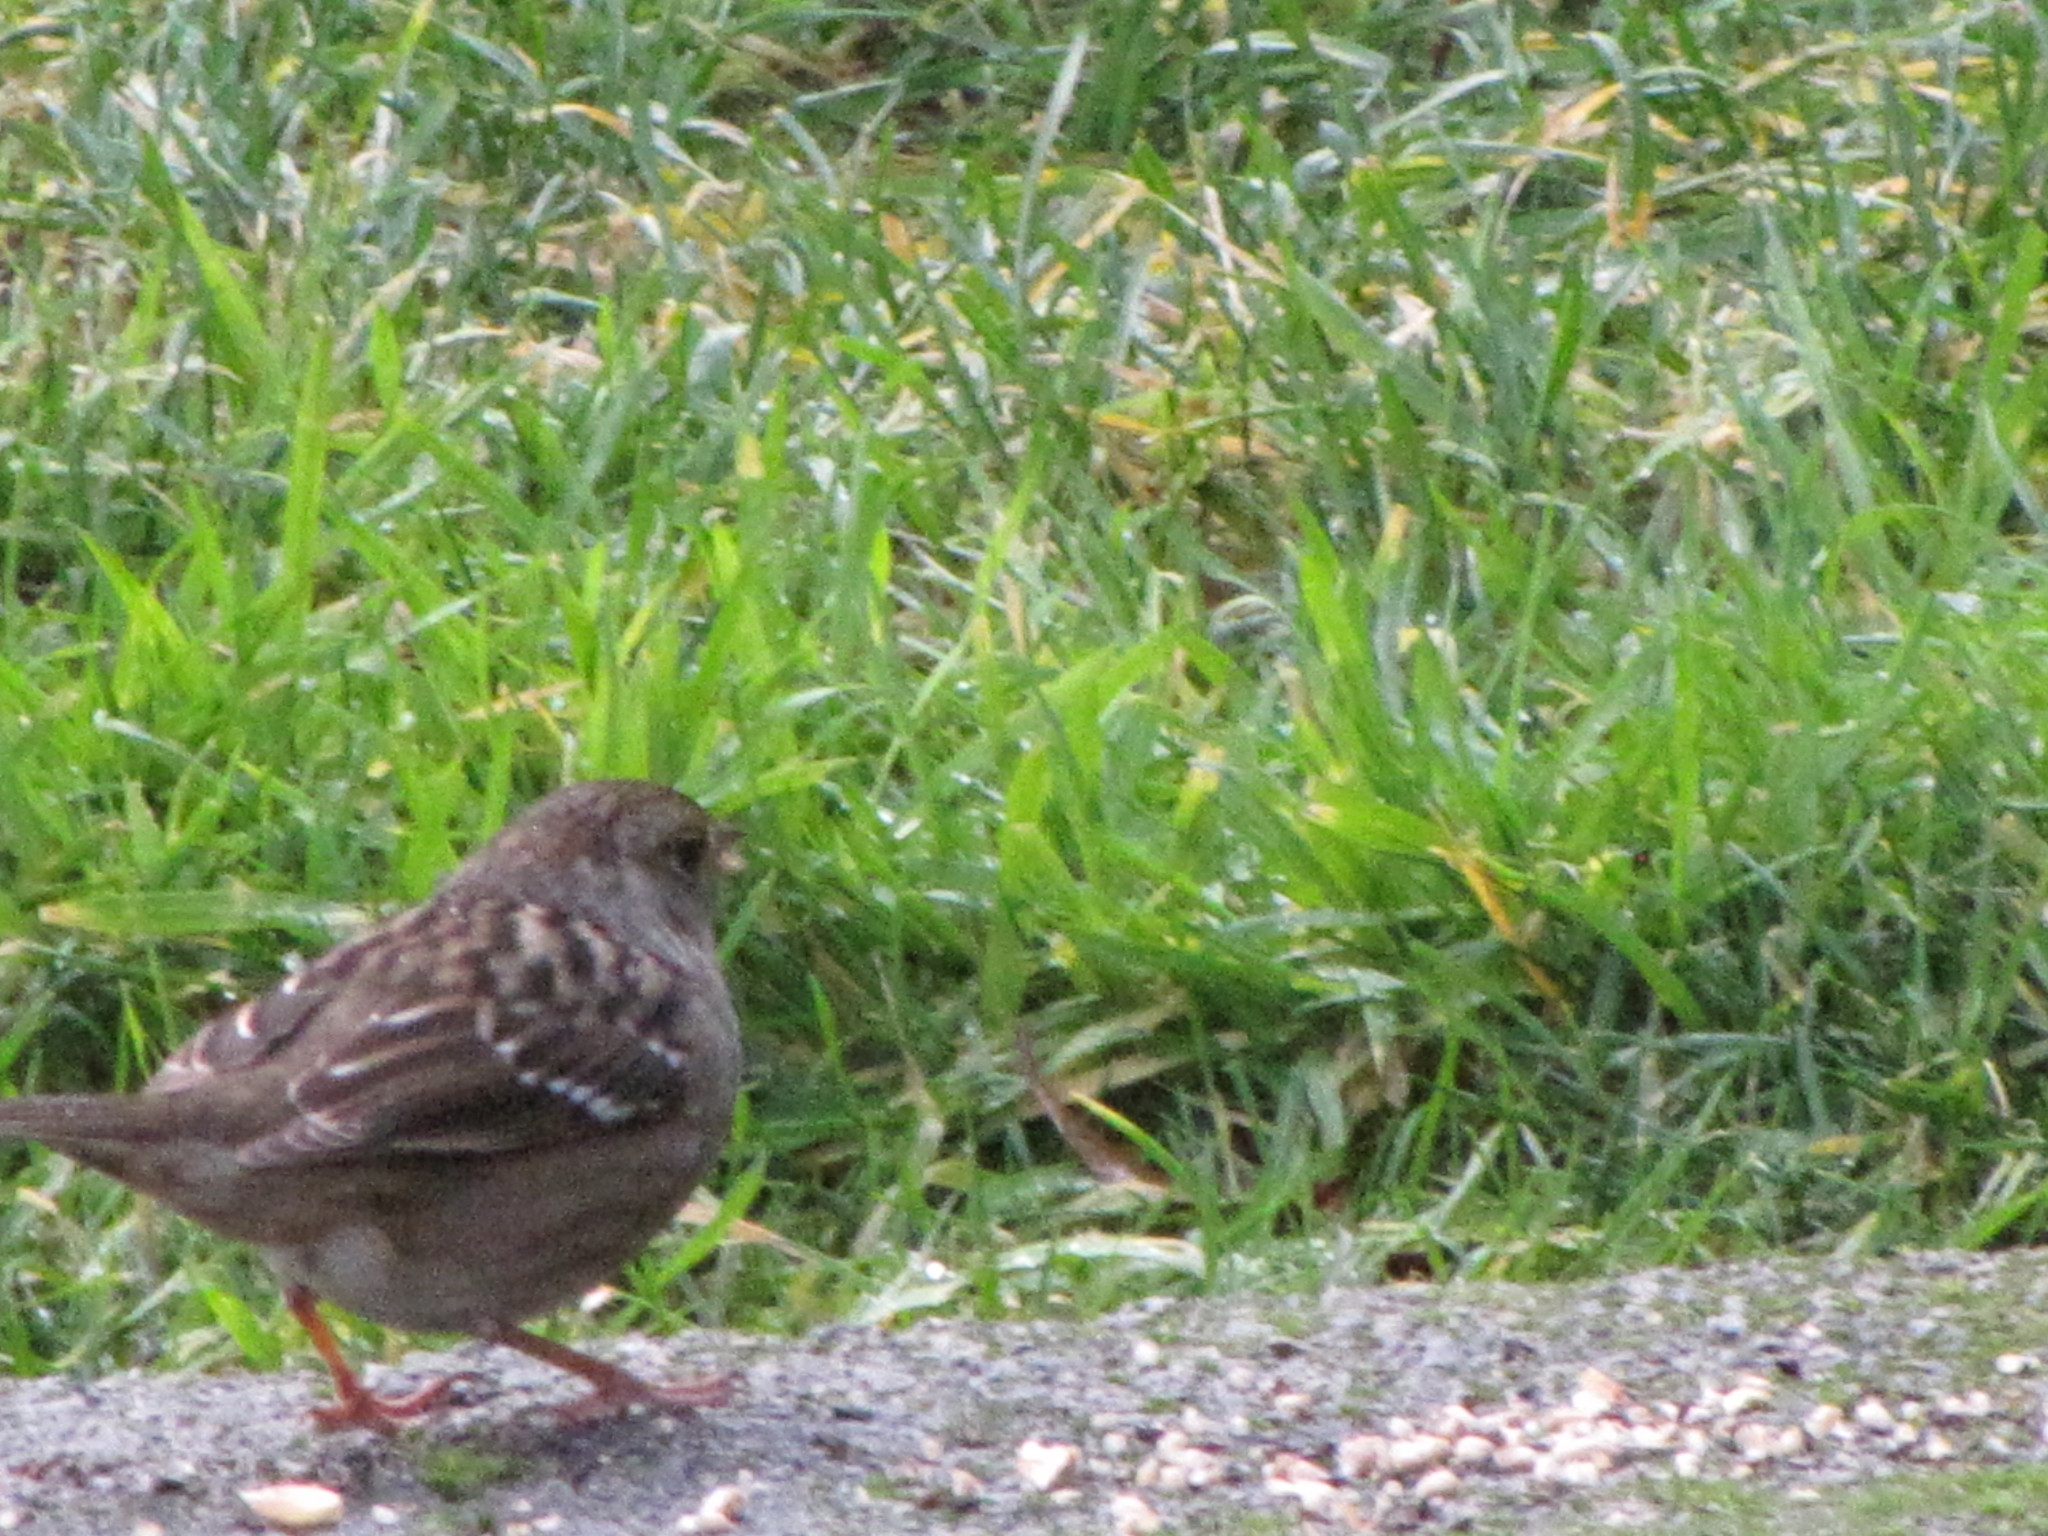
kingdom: Animalia
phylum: Chordata
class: Aves
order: Passeriformes
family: Passerellidae
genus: Zonotrichia
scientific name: Zonotrichia atricapilla
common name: Golden-crowned sparrow
